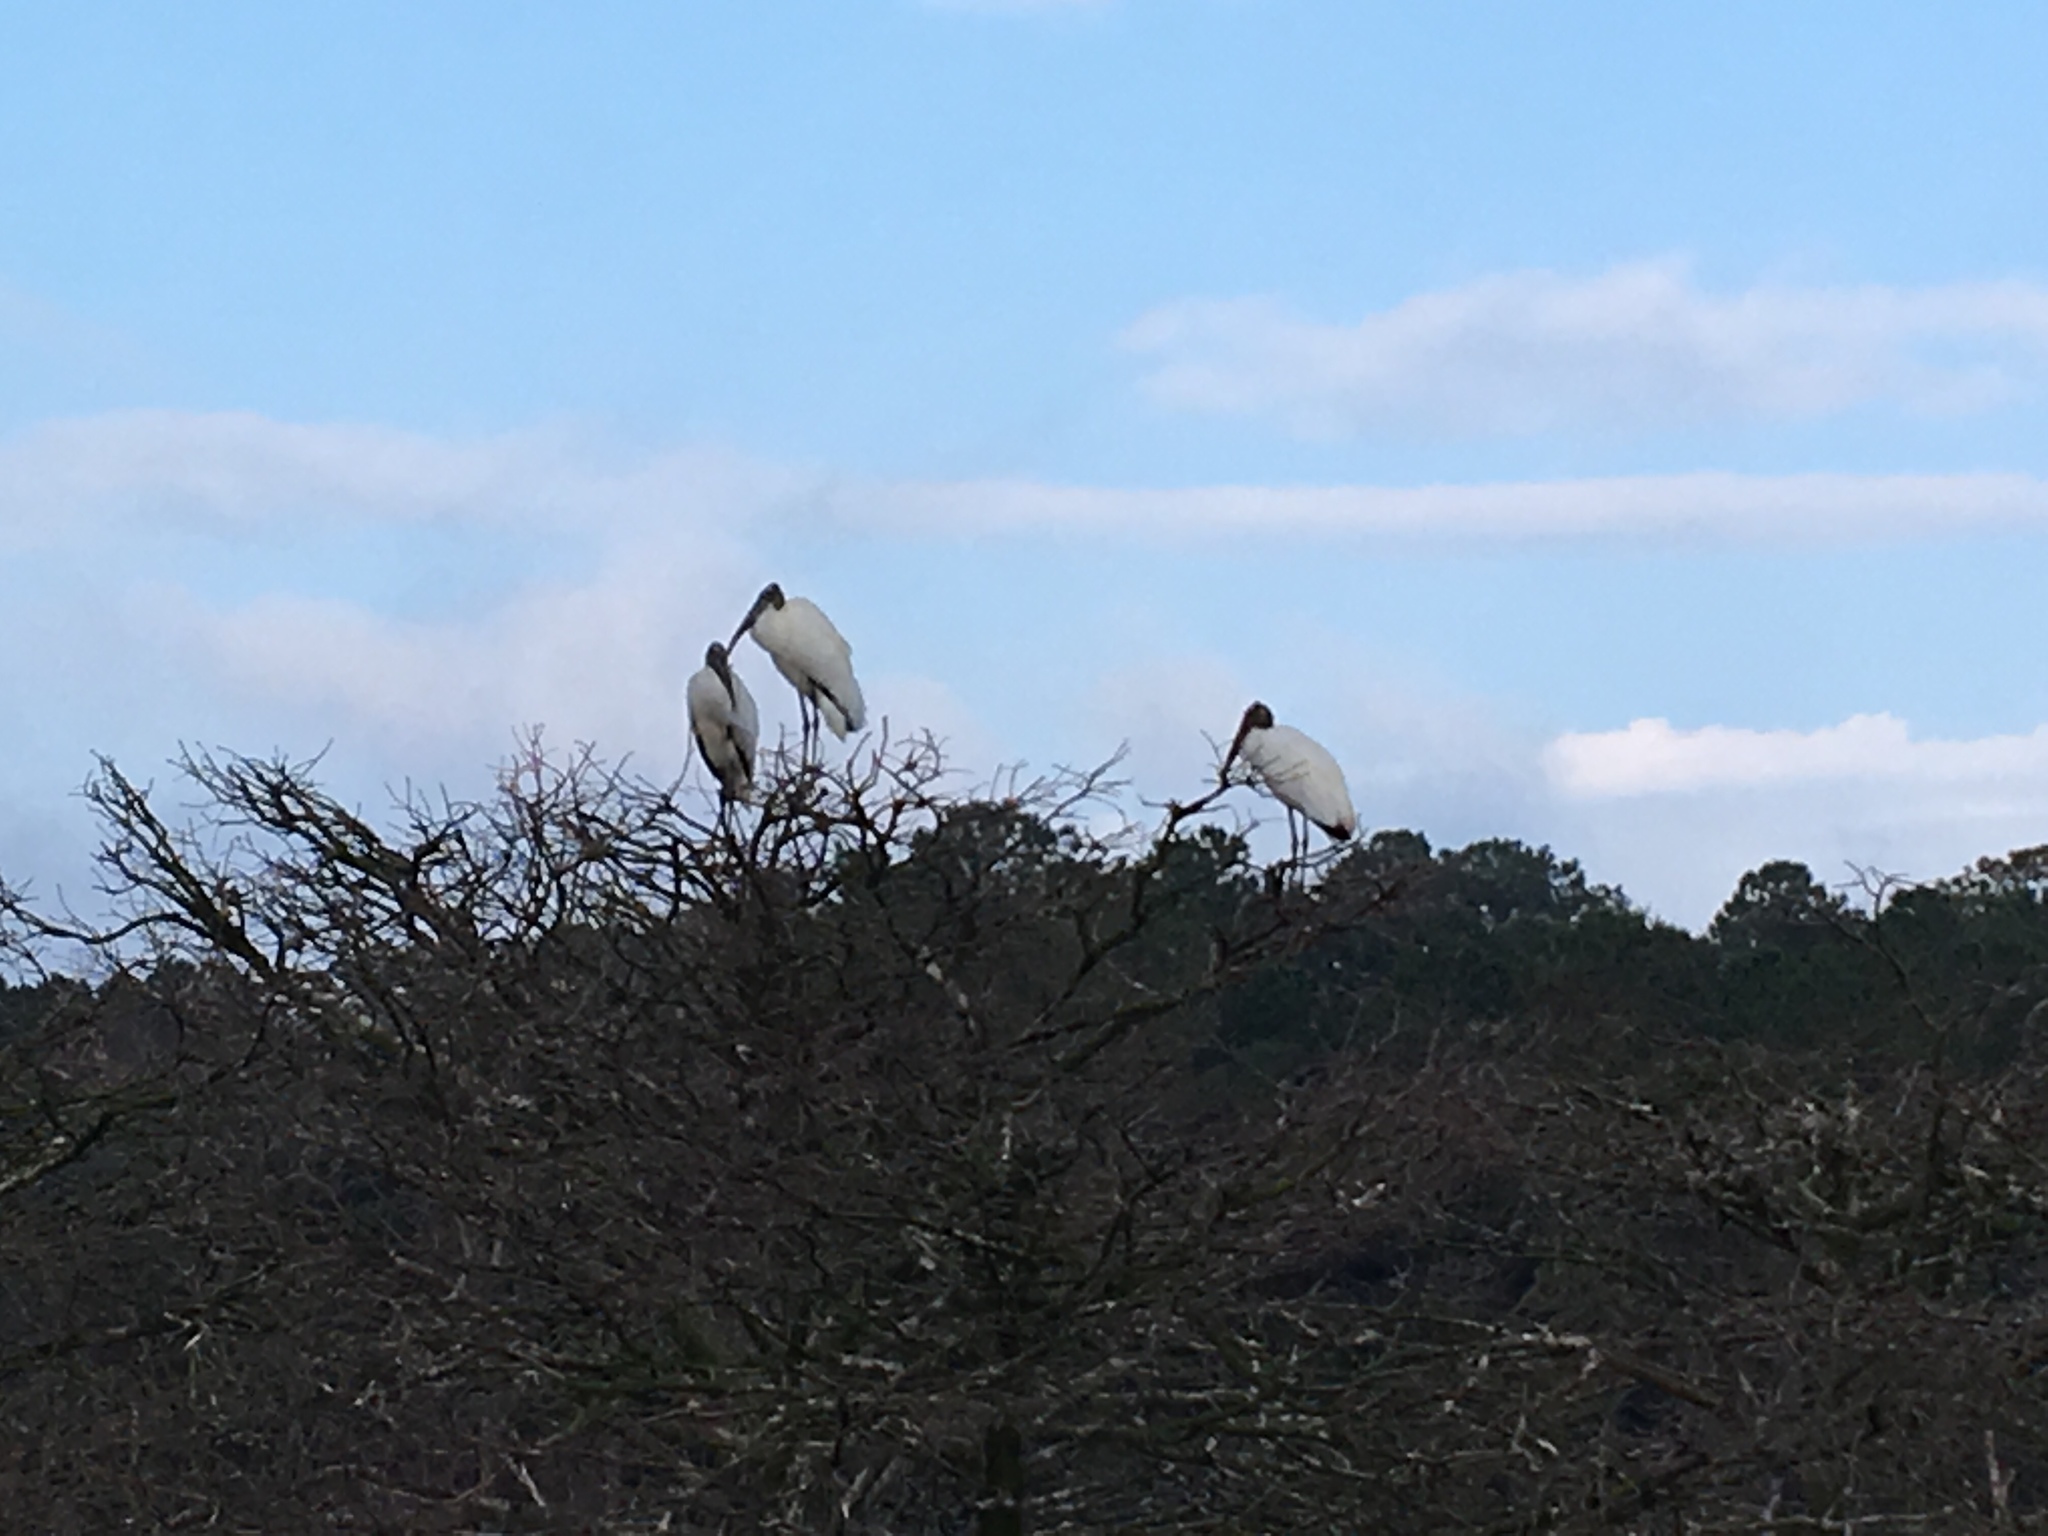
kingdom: Animalia
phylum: Chordata
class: Aves
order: Ciconiiformes
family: Ciconiidae
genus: Mycteria
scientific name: Mycteria americana
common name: Wood stork
